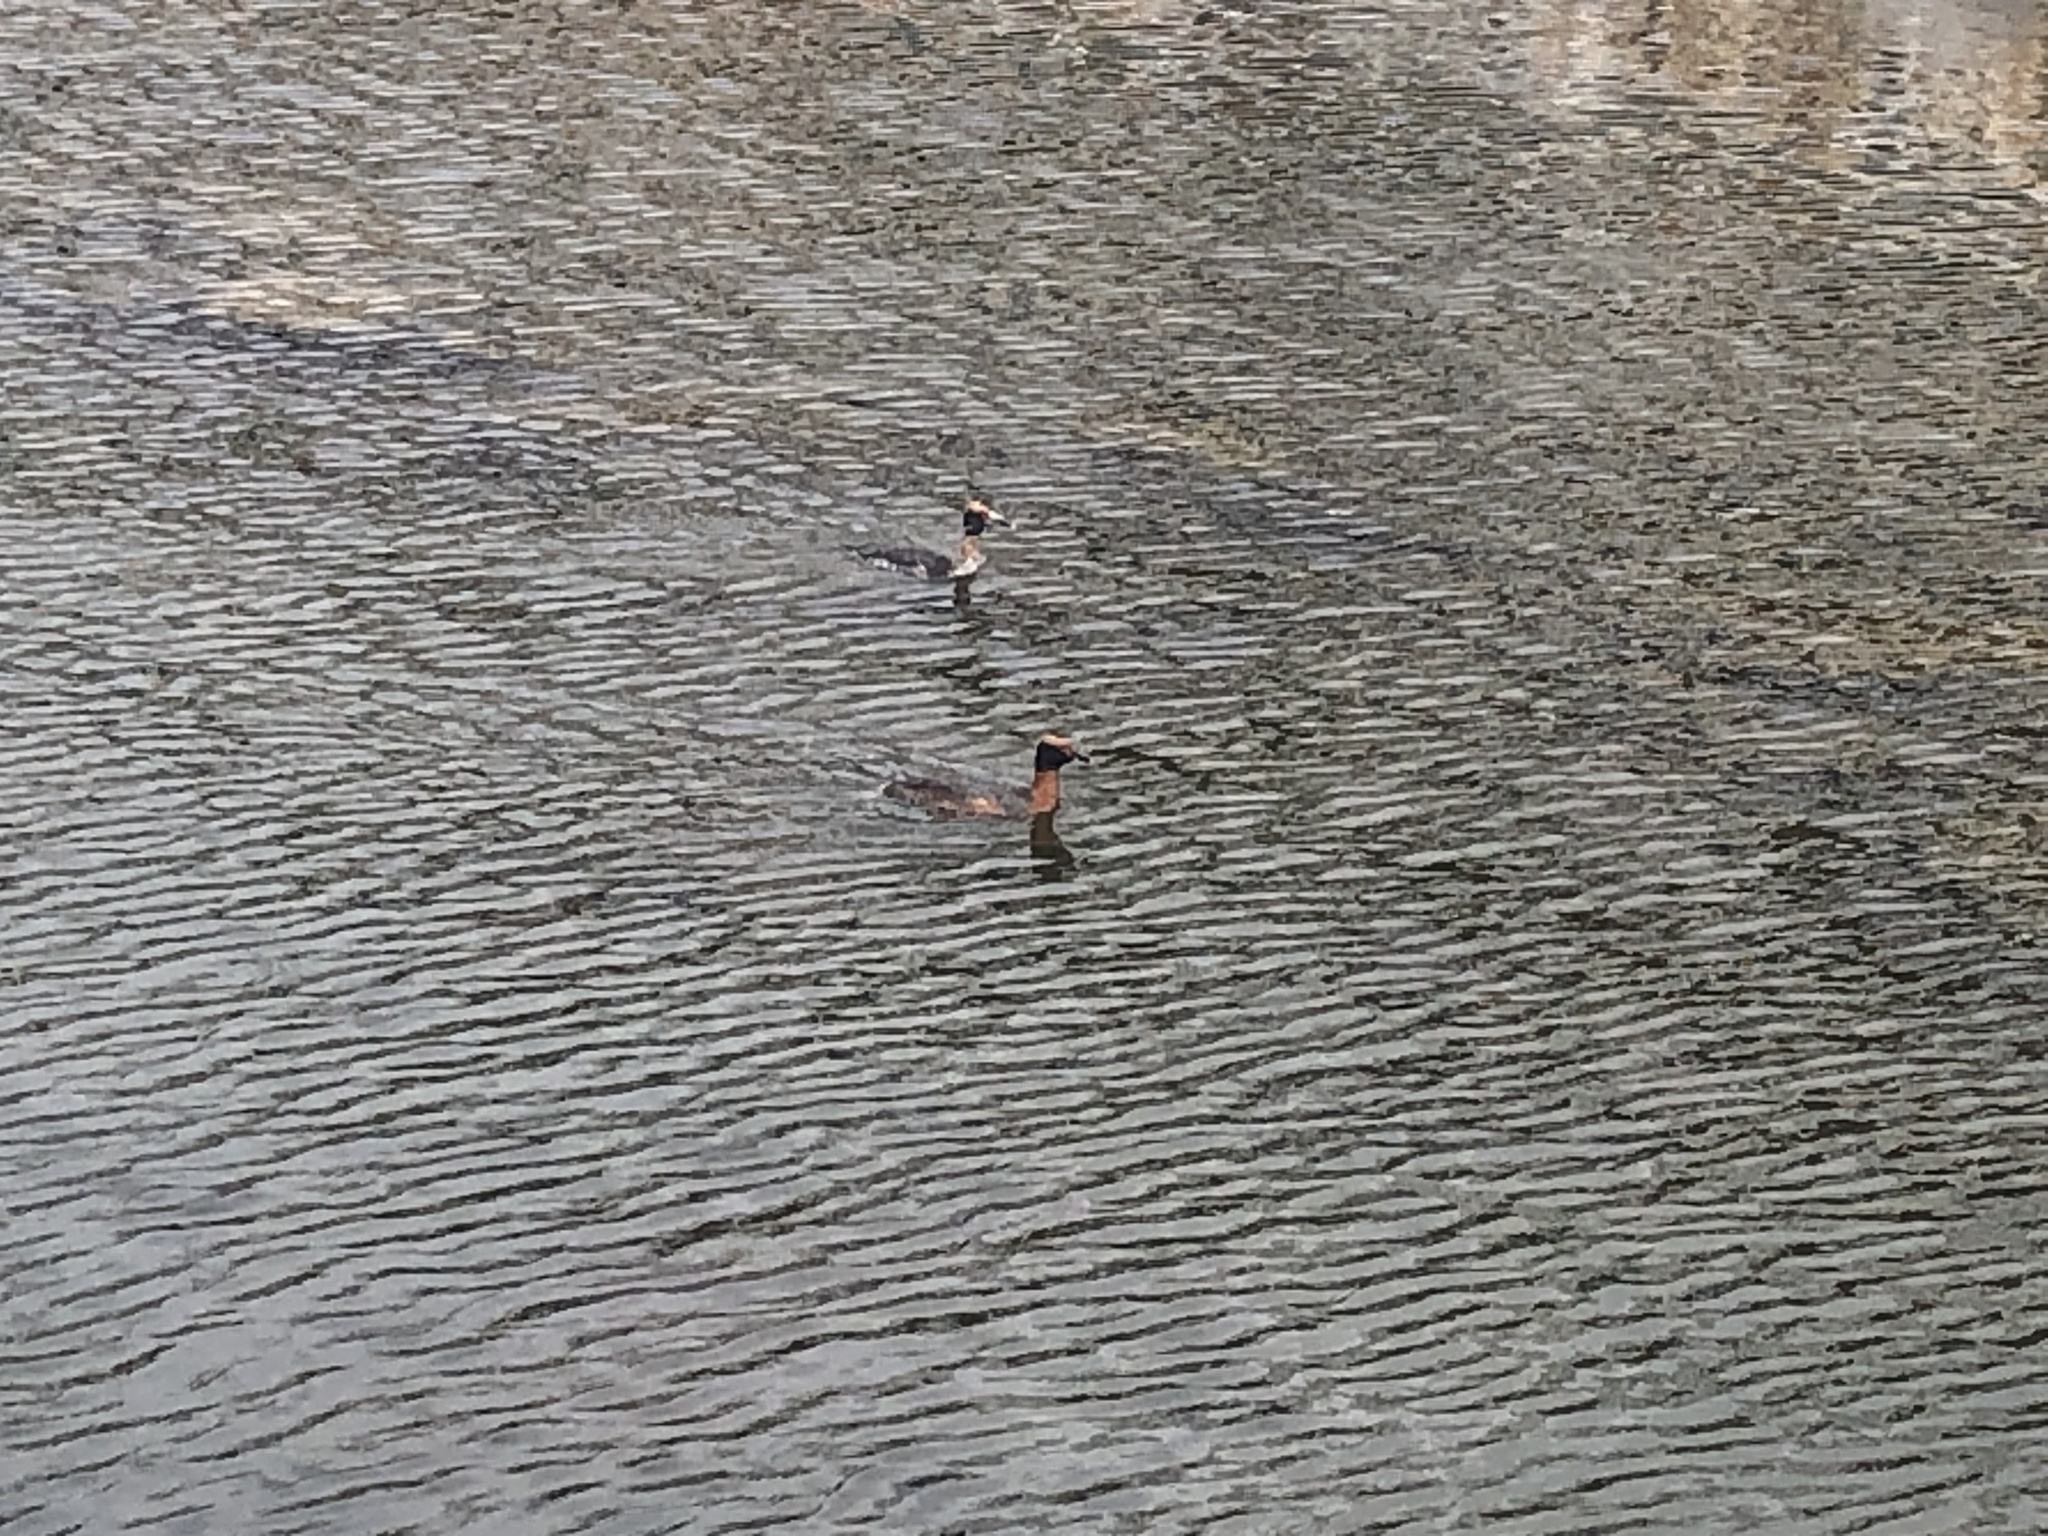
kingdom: Animalia
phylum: Chordata
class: Aves
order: Podicipediformes
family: Podicipedidae
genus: Podiceps
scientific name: Podiceps auritus
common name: Horned grebe
